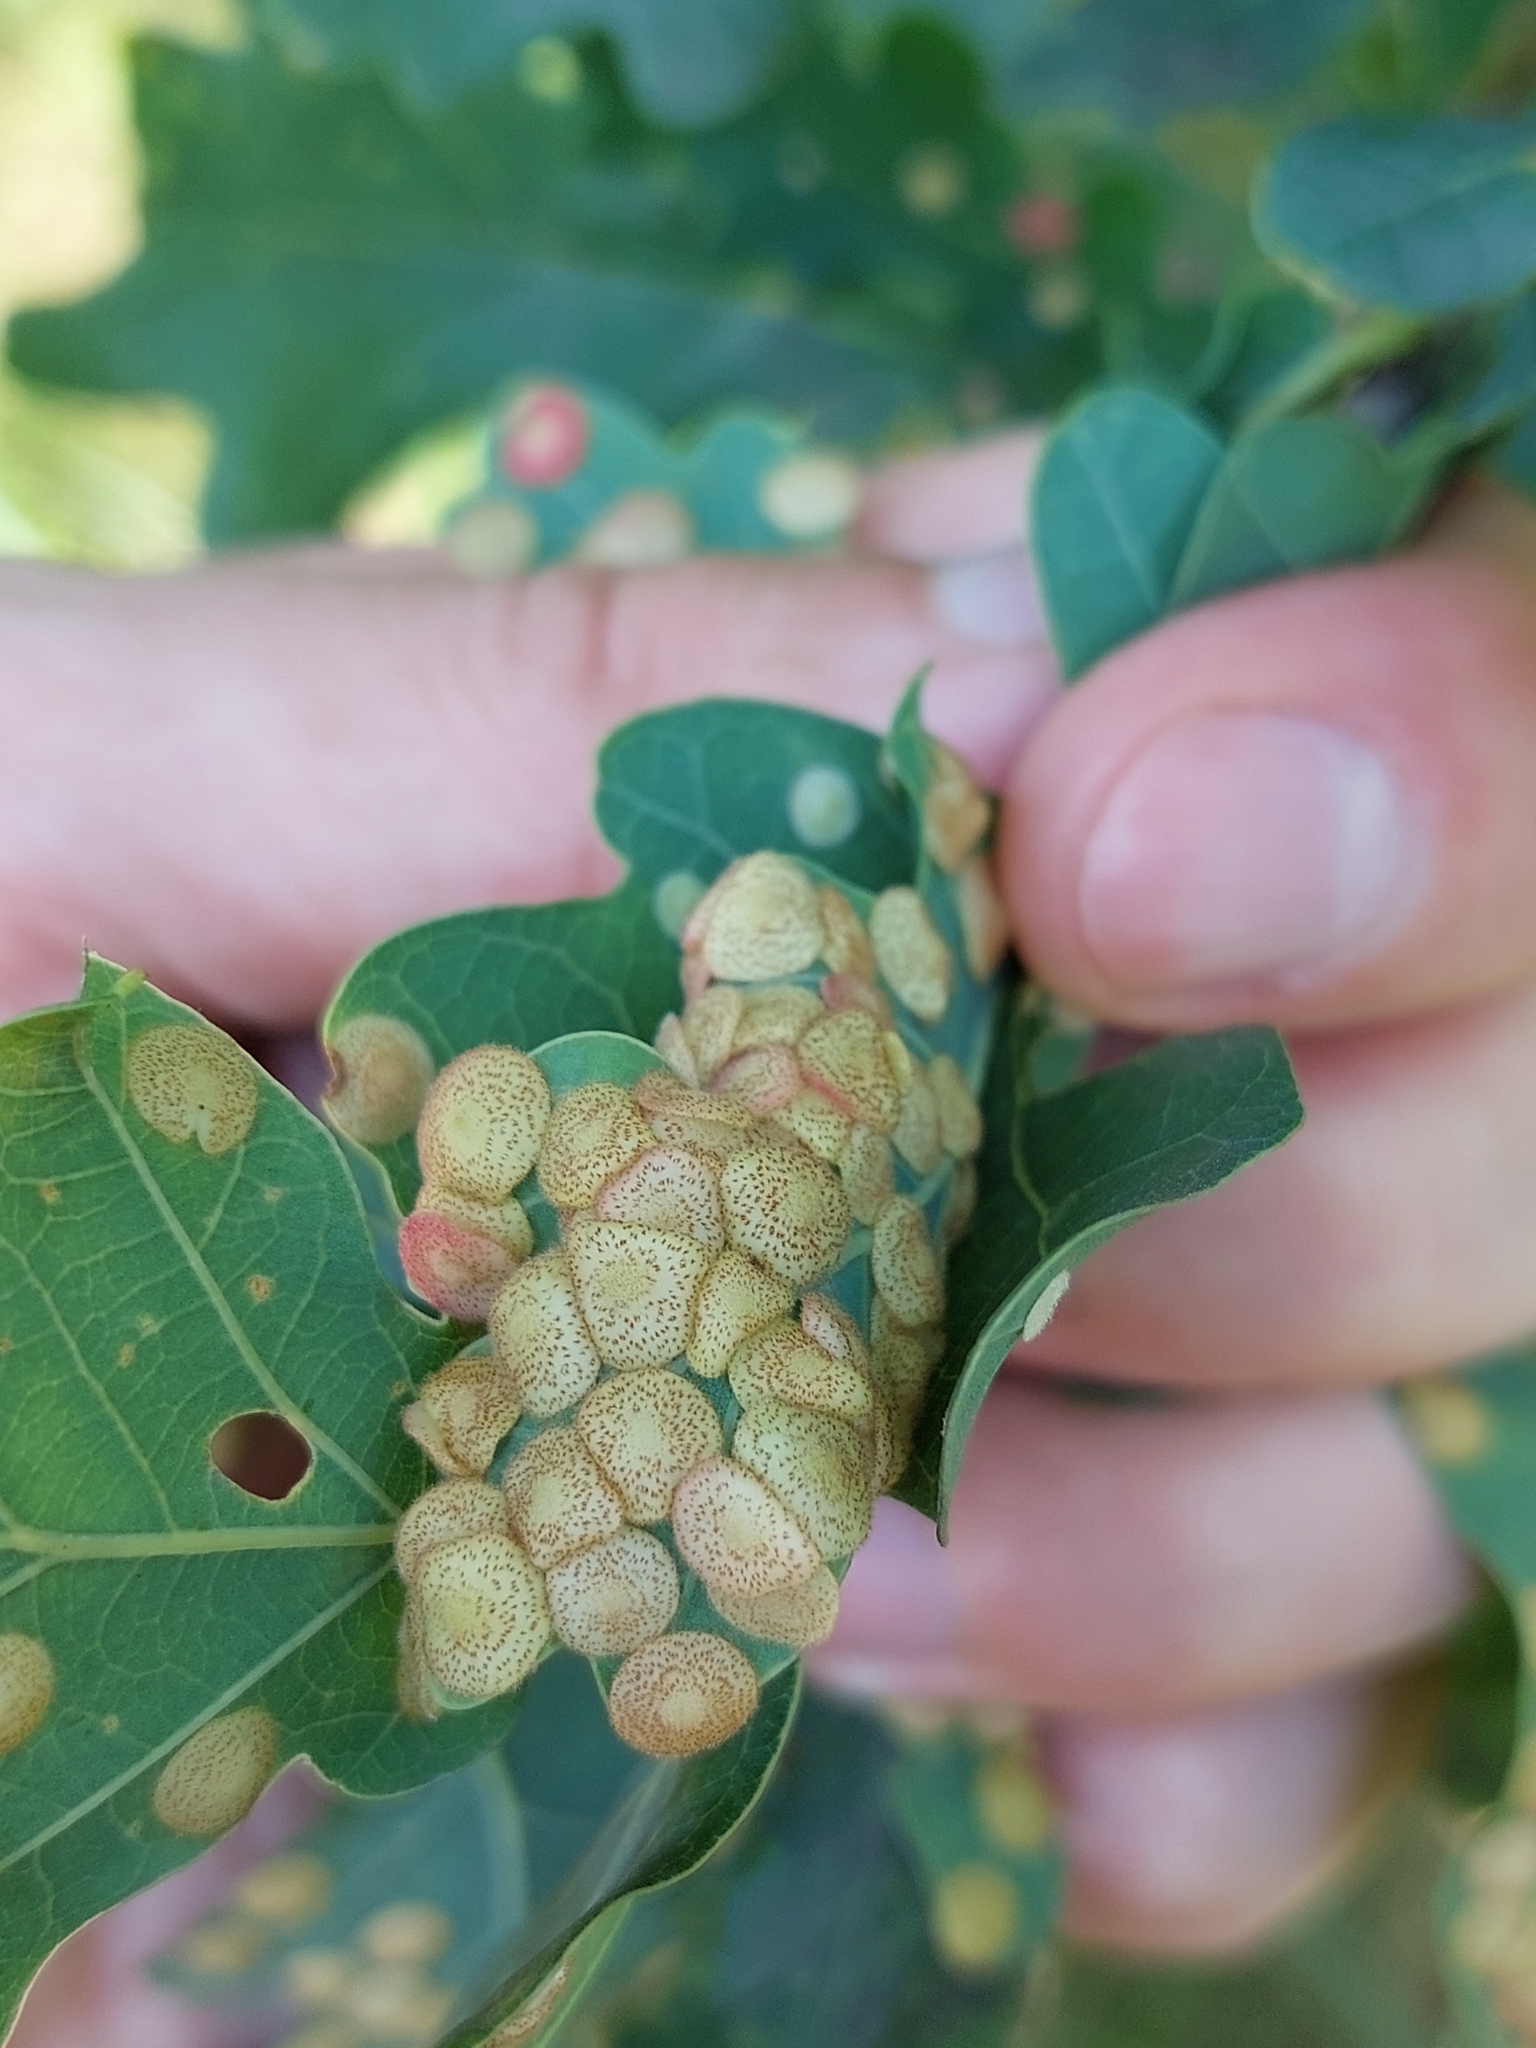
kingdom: Animalia
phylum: Arthropoda
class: Insecta
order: Hymenoptera
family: Cynipidae
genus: Neuroterus
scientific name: Neuroterus quercusbaccarum
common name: Common spangle gall
